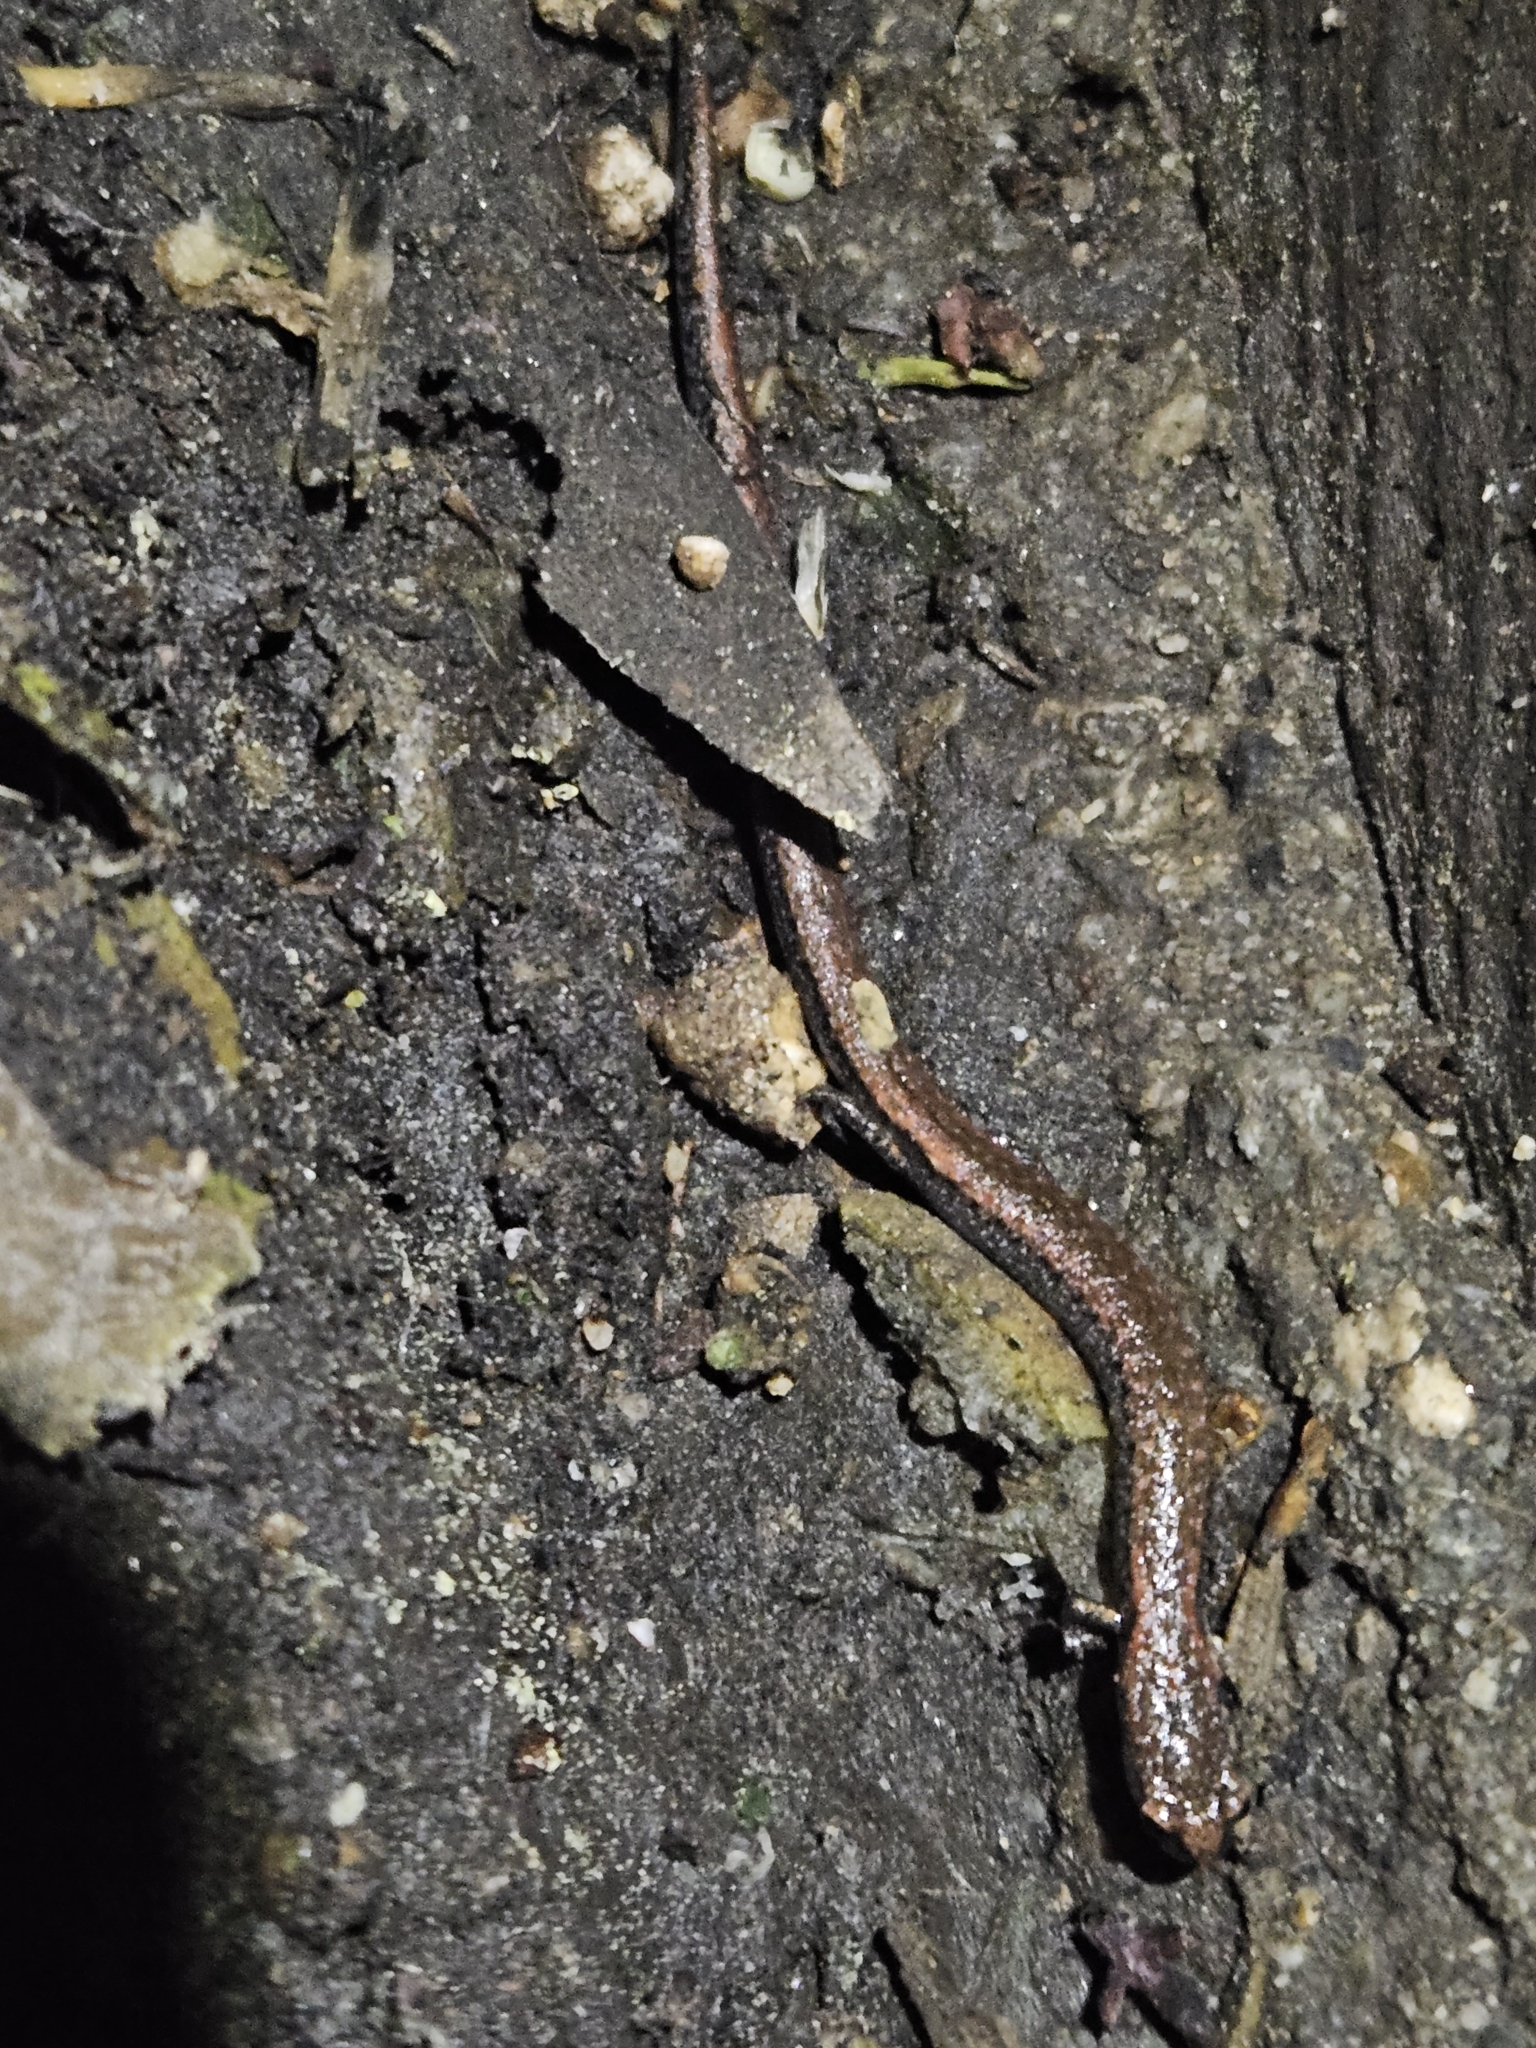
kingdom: Animalia
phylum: Chordata
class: Amphibia
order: Caudata
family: Plethodontidae
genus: Batrachoseps
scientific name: Batrachoseps nigriventris
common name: Black-bellied slender salamander
